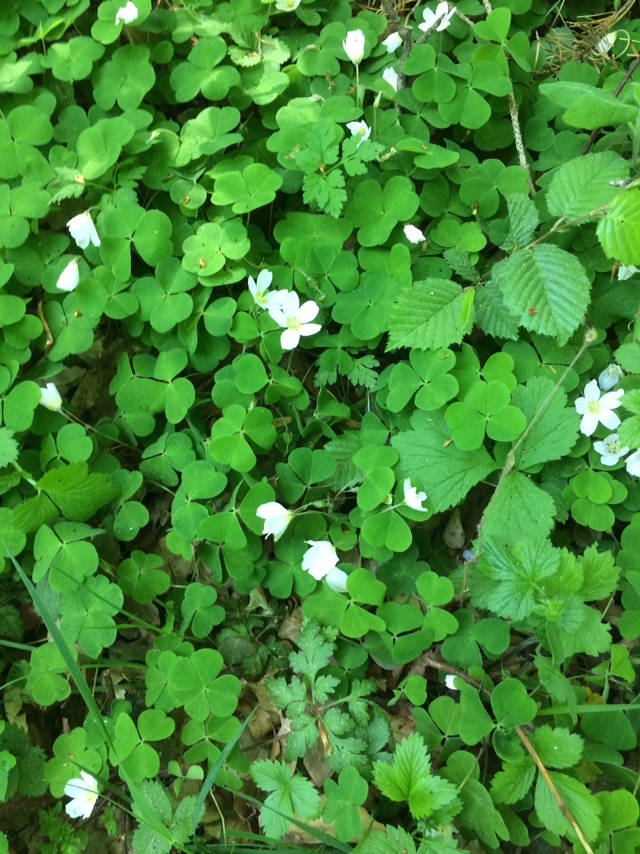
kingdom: Plantae
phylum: Tracheophyta
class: Magnoliopsida
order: Oxalidales
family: Oxalidaceae
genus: Oxalis
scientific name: Oxalis acetosella
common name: Wood-sorrel
